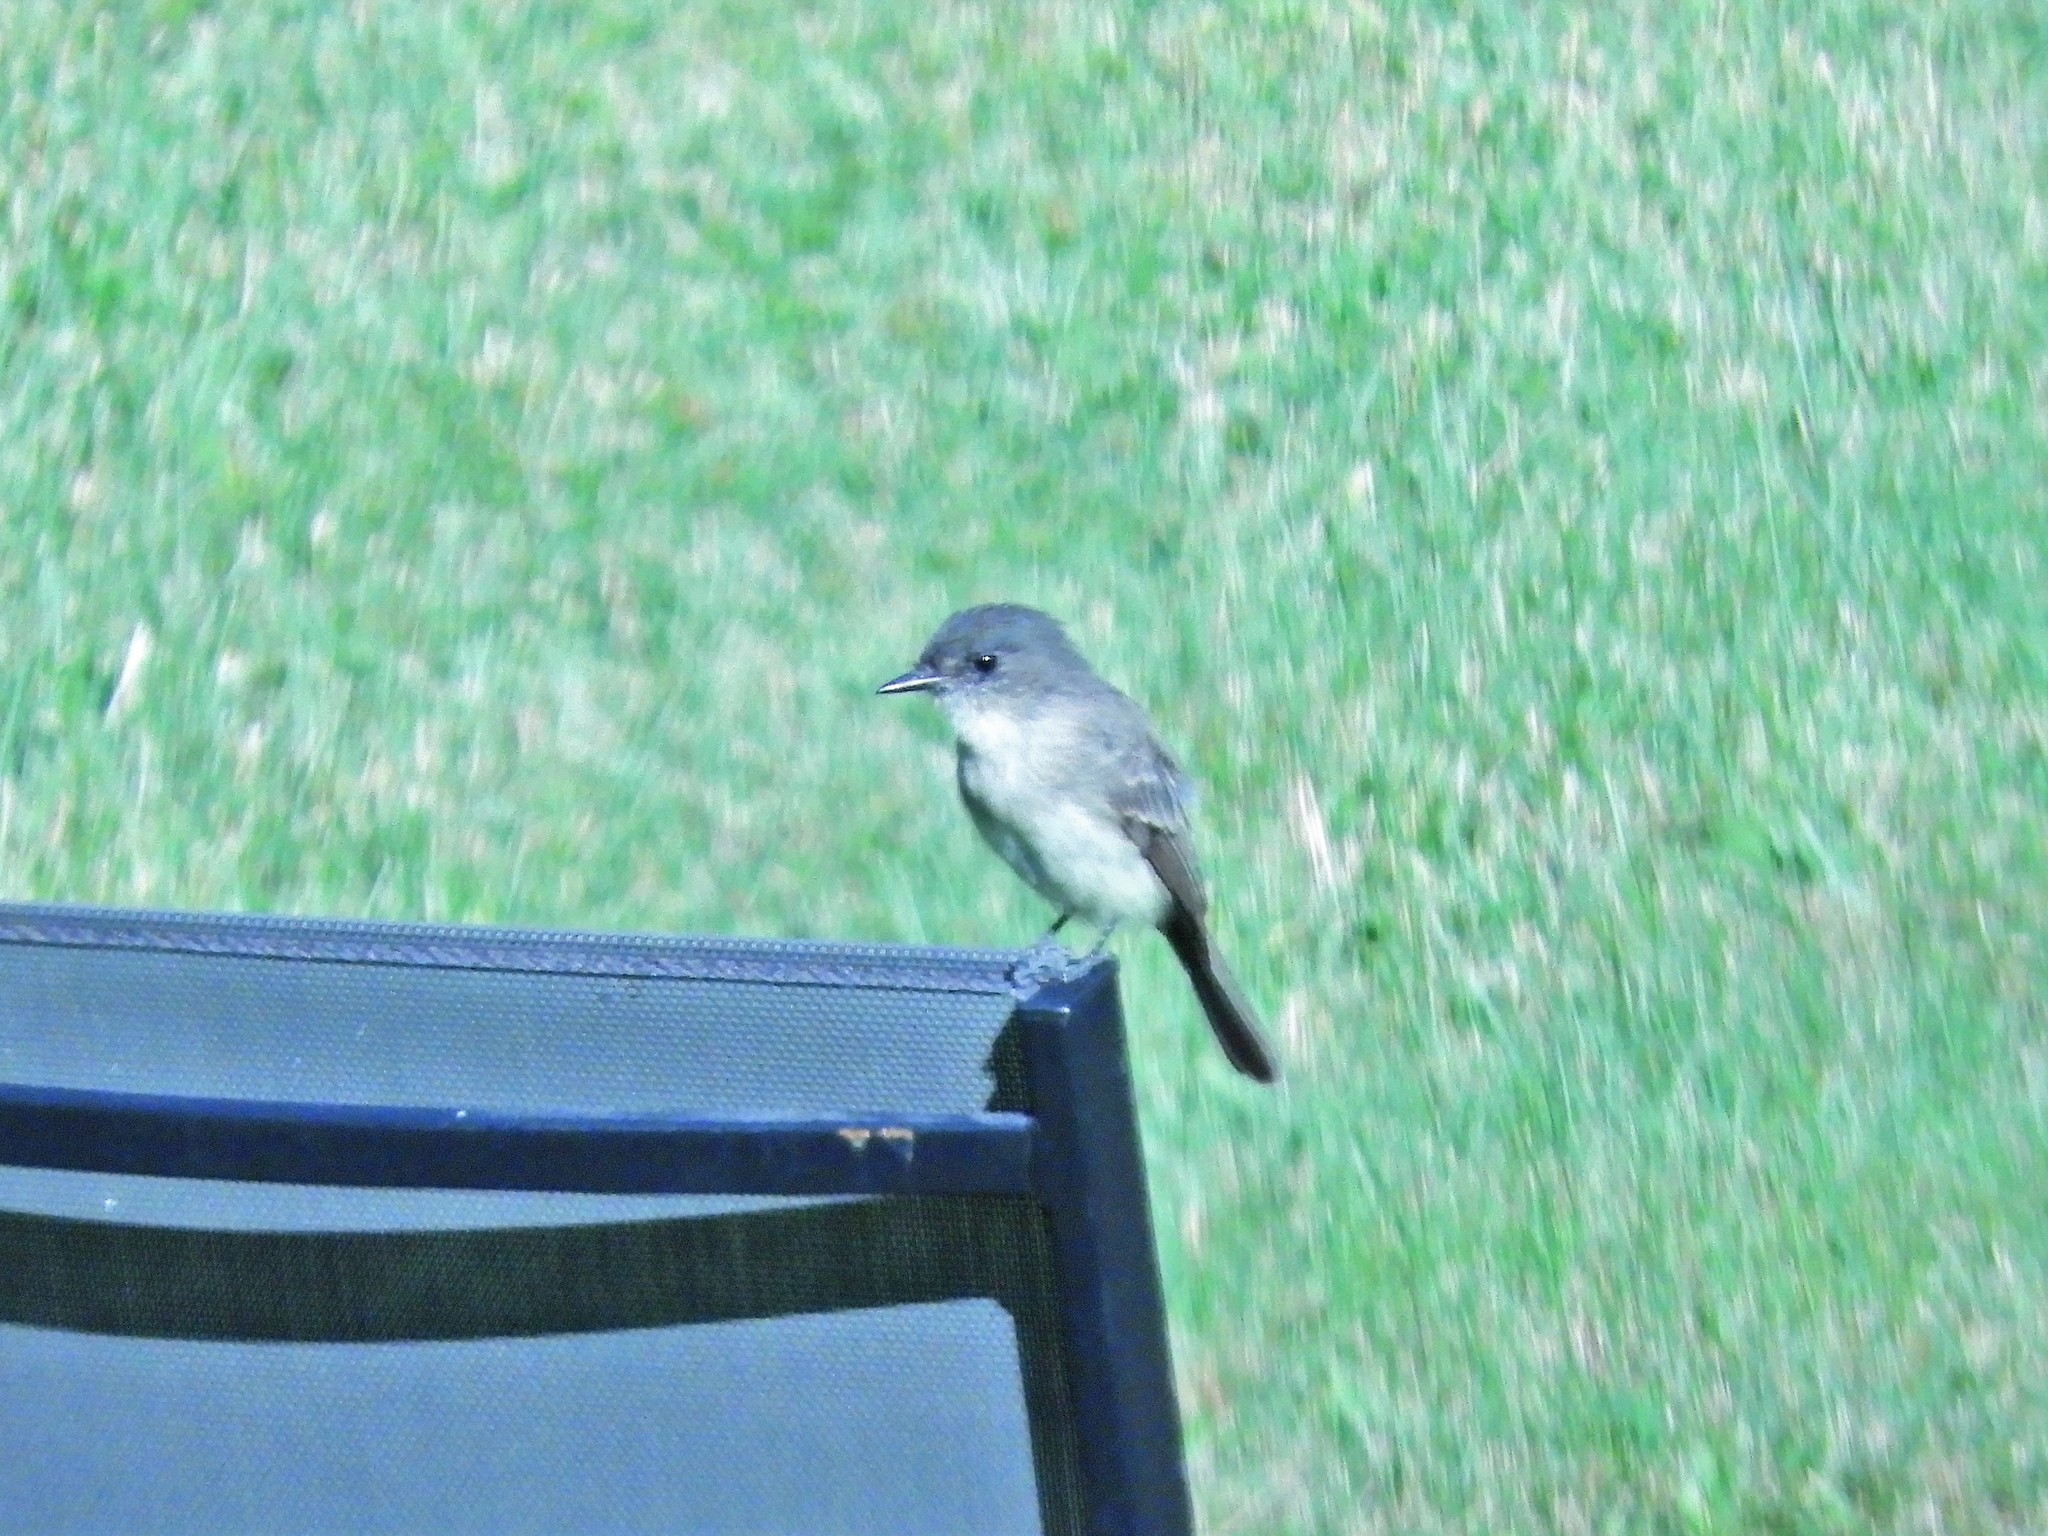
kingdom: Animalia
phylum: Chordata
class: Aves
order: Passeriformes
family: Tyrannidae
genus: Sayornis
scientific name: Sayornis phoebe
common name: Eastern phoebe
